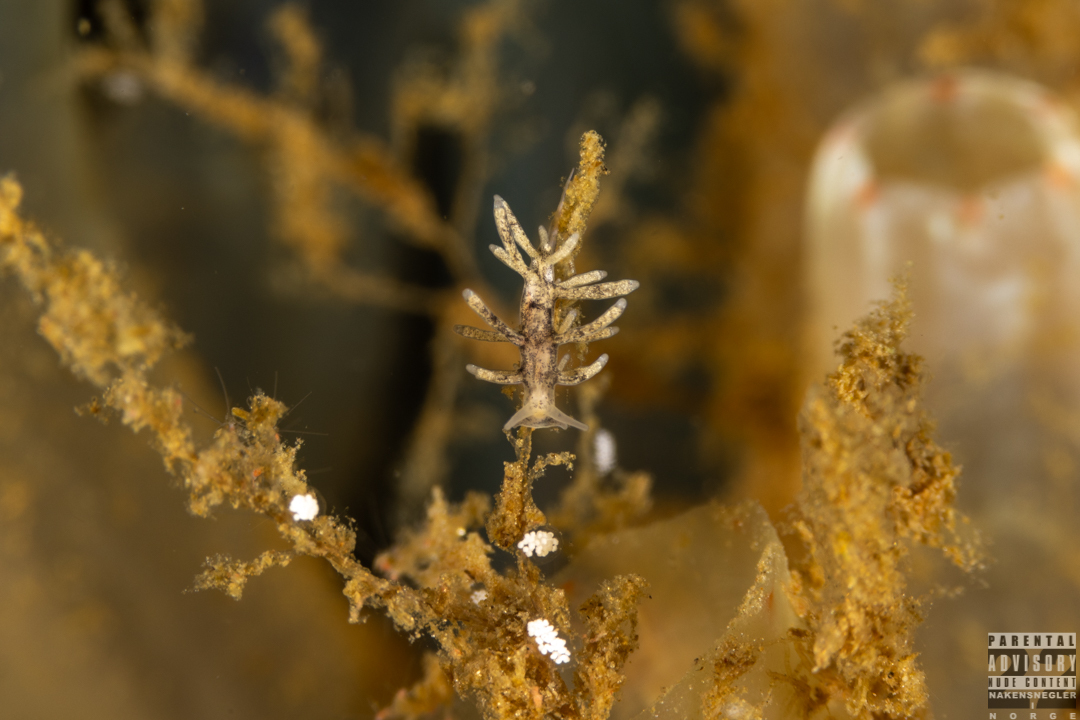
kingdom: Animalia
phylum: Mollusca
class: Gastropoda
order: Nudibranchia
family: Trinchesiidae
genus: Tenellia
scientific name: Tenellia adspersa
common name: Lagoon sea slug
